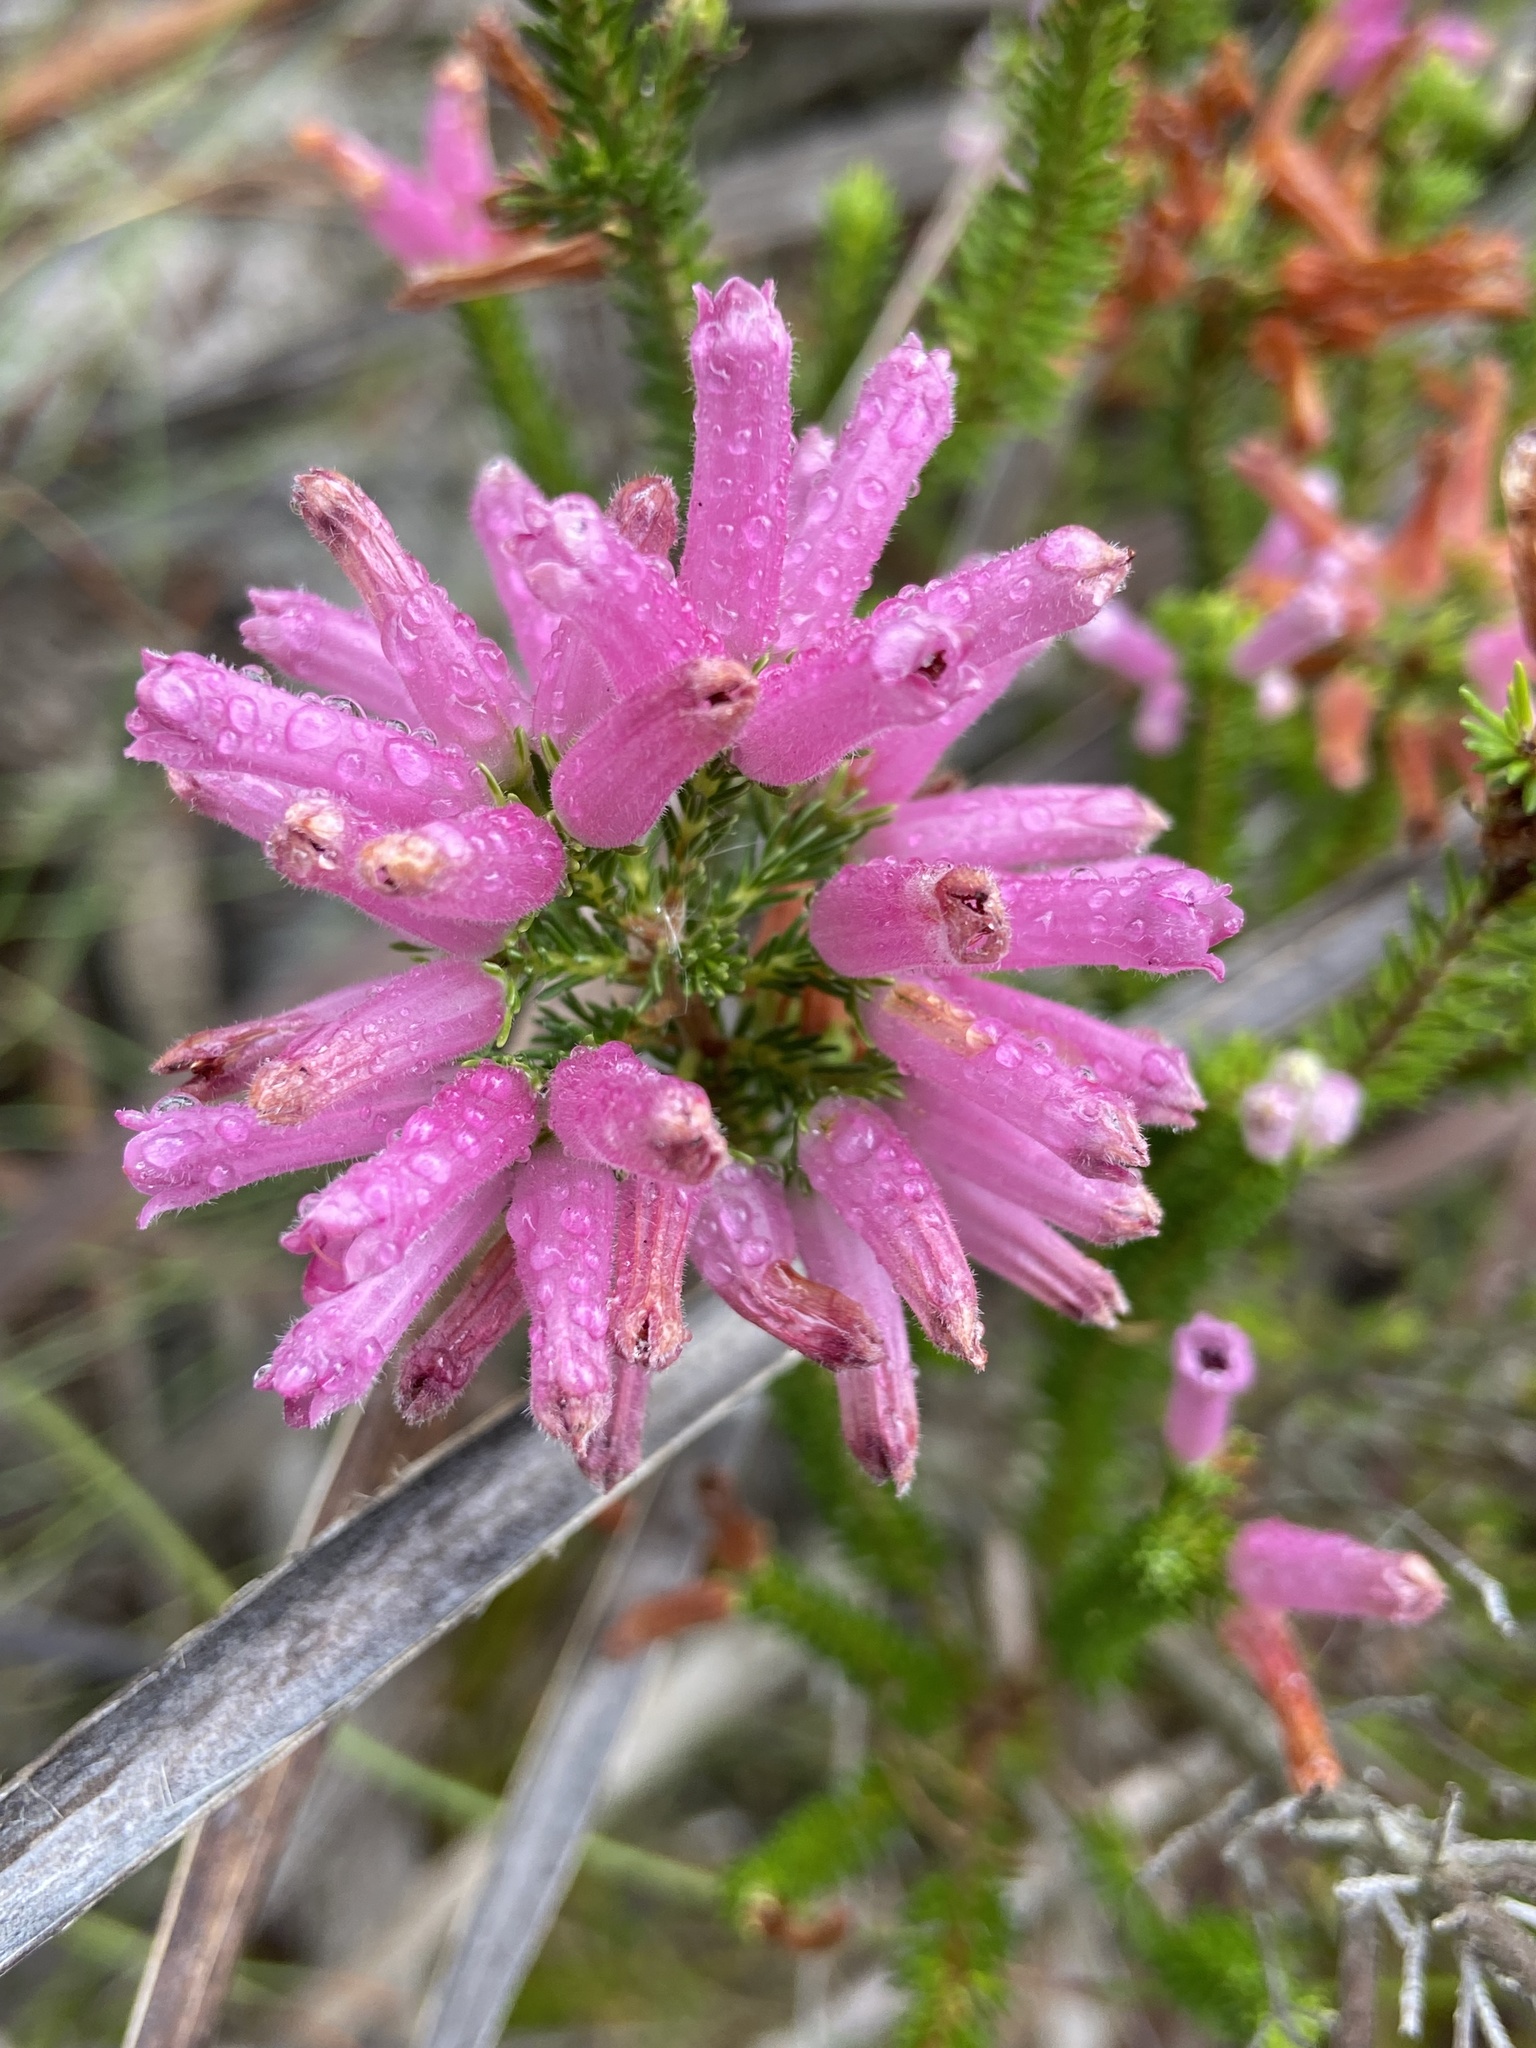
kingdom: Plantae
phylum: Tracheophyta
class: Magnoliopsida
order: Ericales
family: Ericaceae
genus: Erica
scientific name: Erica verticillata
